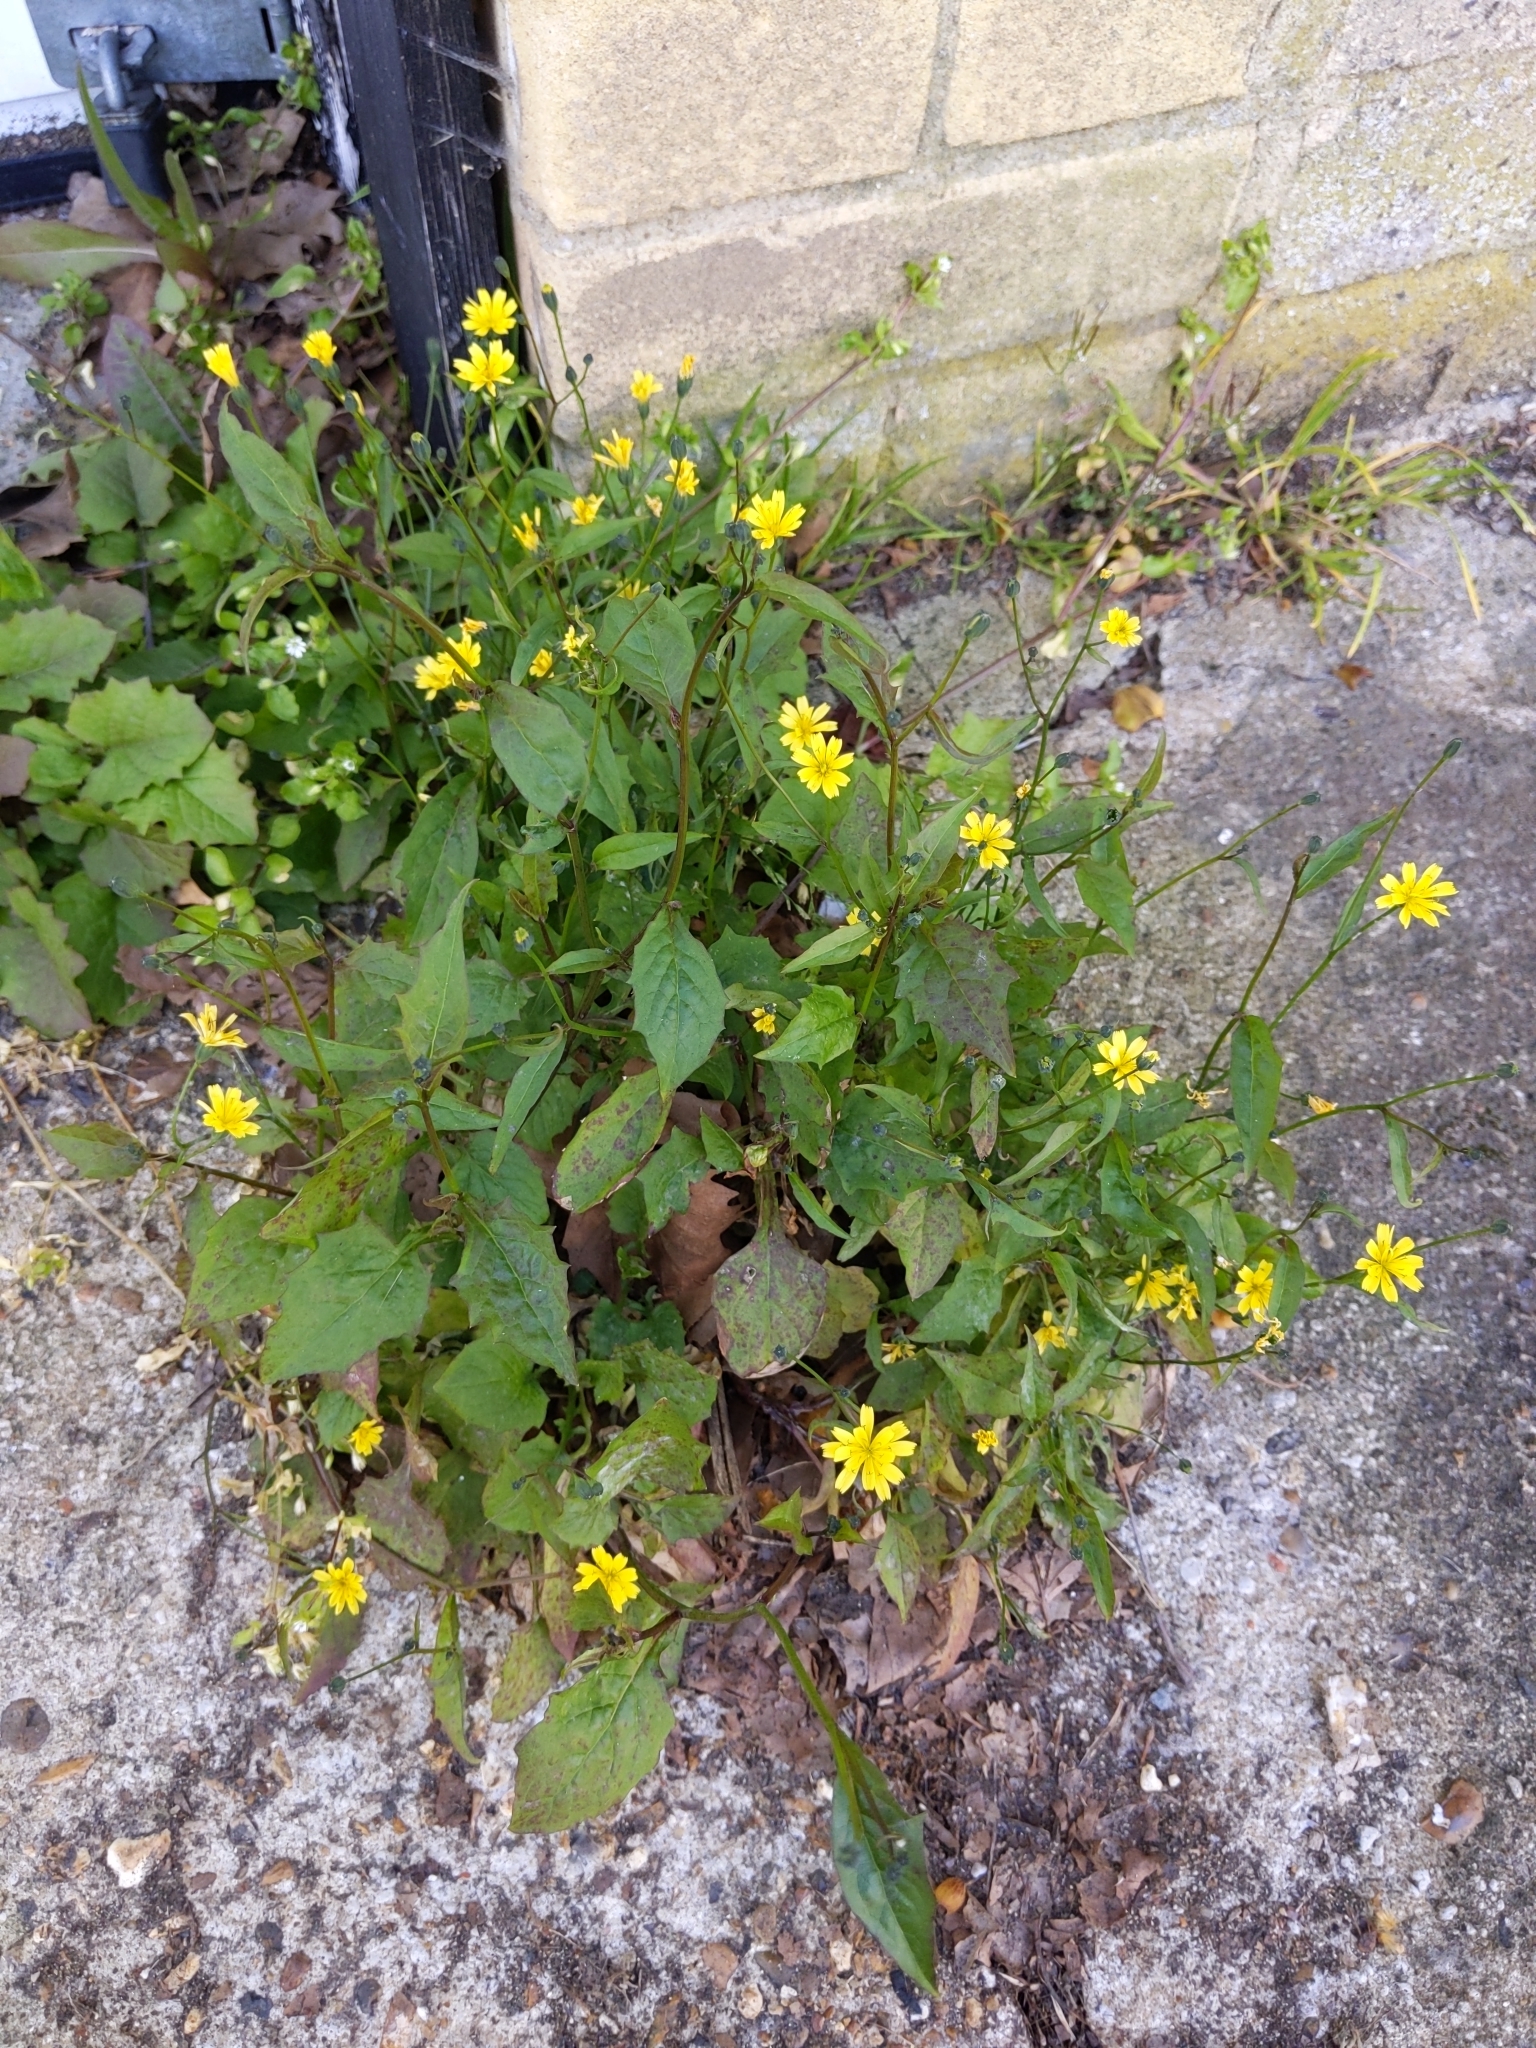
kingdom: Plantae
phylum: Tracheophyta
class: Magnoliopsida
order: Asterales
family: Asteraceae
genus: Lapsana
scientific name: Lapsana communis
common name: Nipplewort
